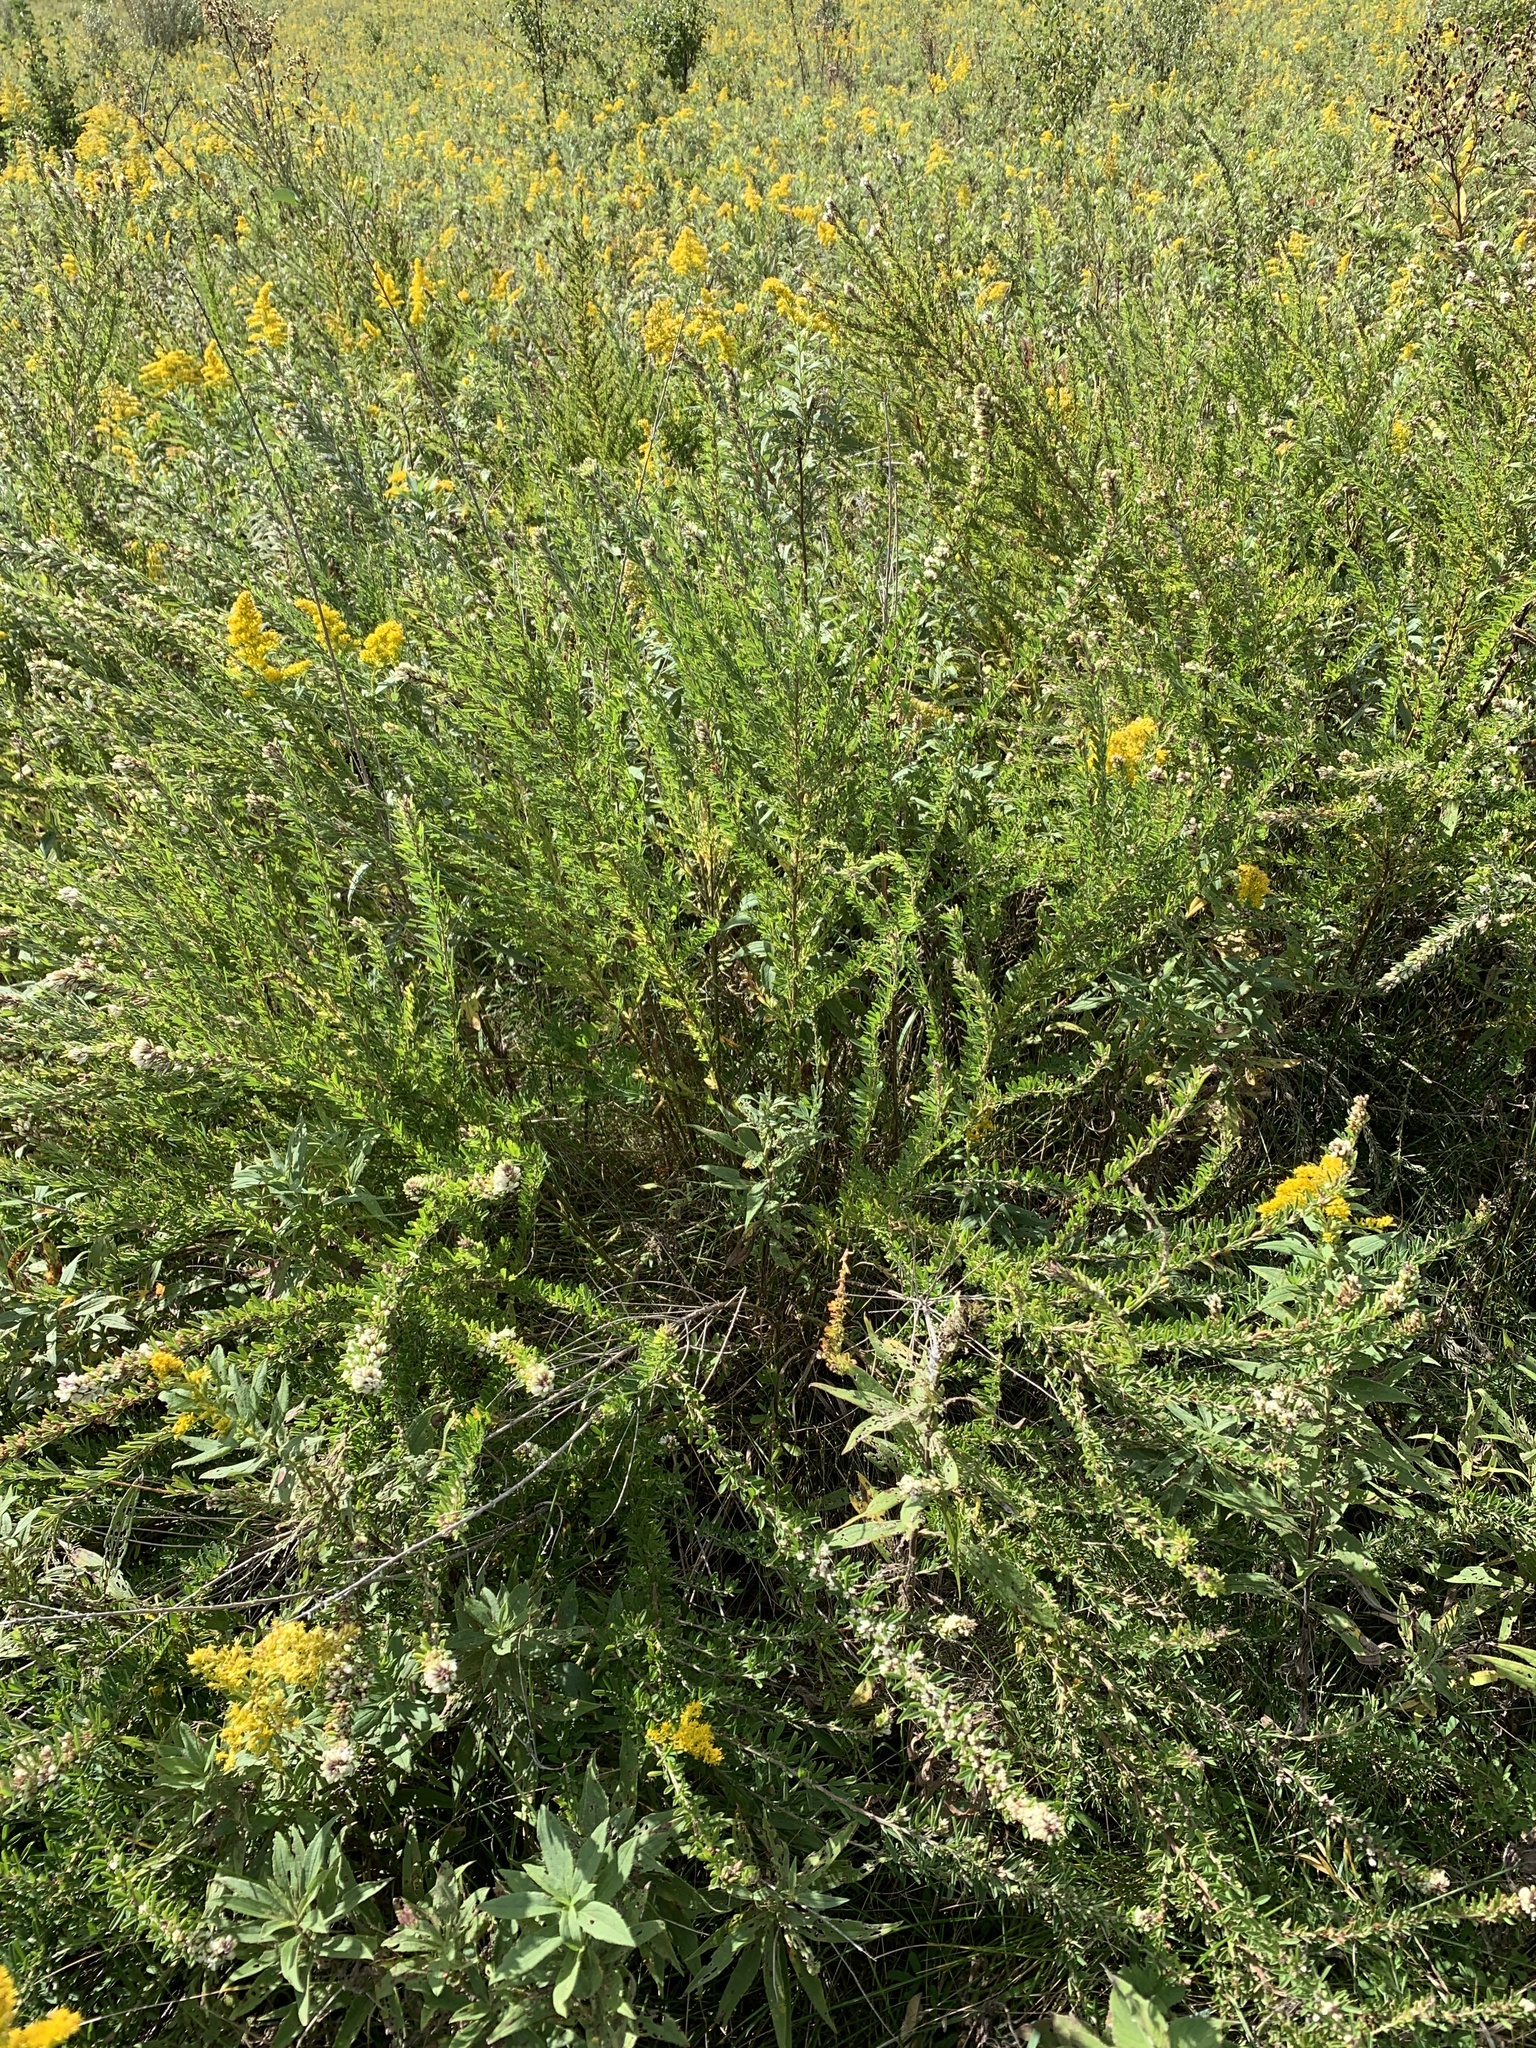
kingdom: Plantae
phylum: Tracheophyta
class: Magnoliopsida
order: Fabales
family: Fabaceae
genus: Lespedeza
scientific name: Lespedeza cuneata
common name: Chinese bush-clover
